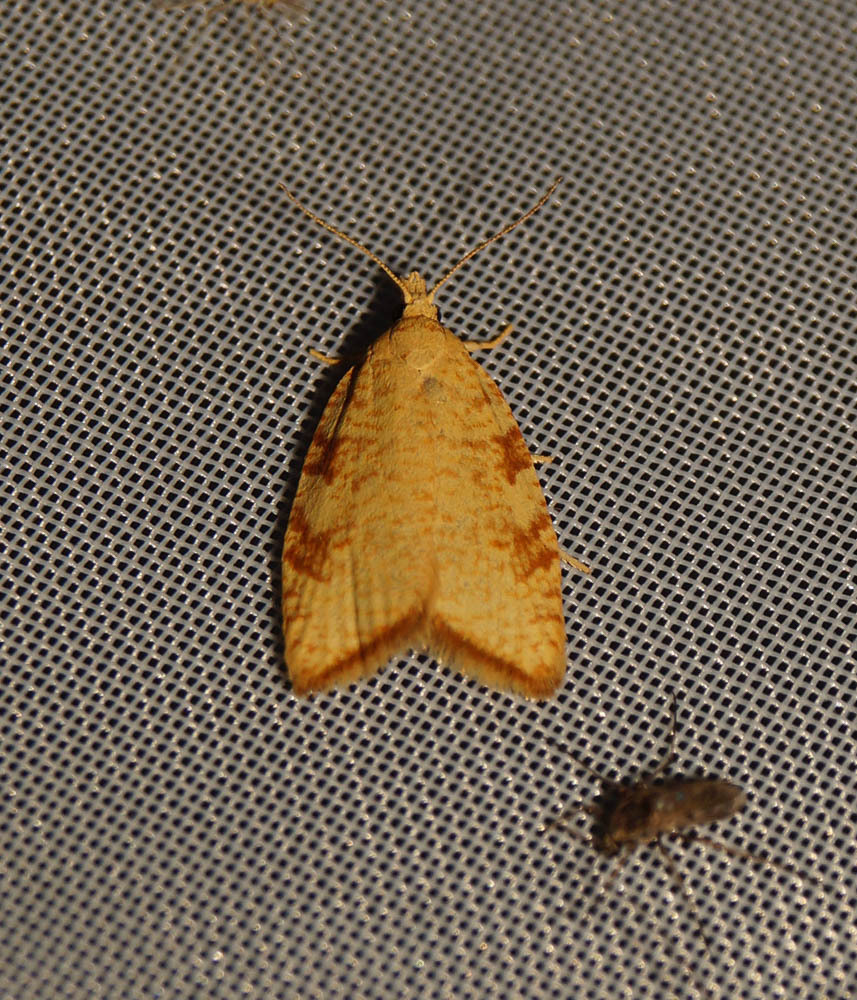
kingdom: Animalia
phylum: Arthropoda
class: Insecta
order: Lepidoptera
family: Tortricidae
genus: Aleimma
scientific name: Aleimma loeflingiana
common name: Yellow oak button
